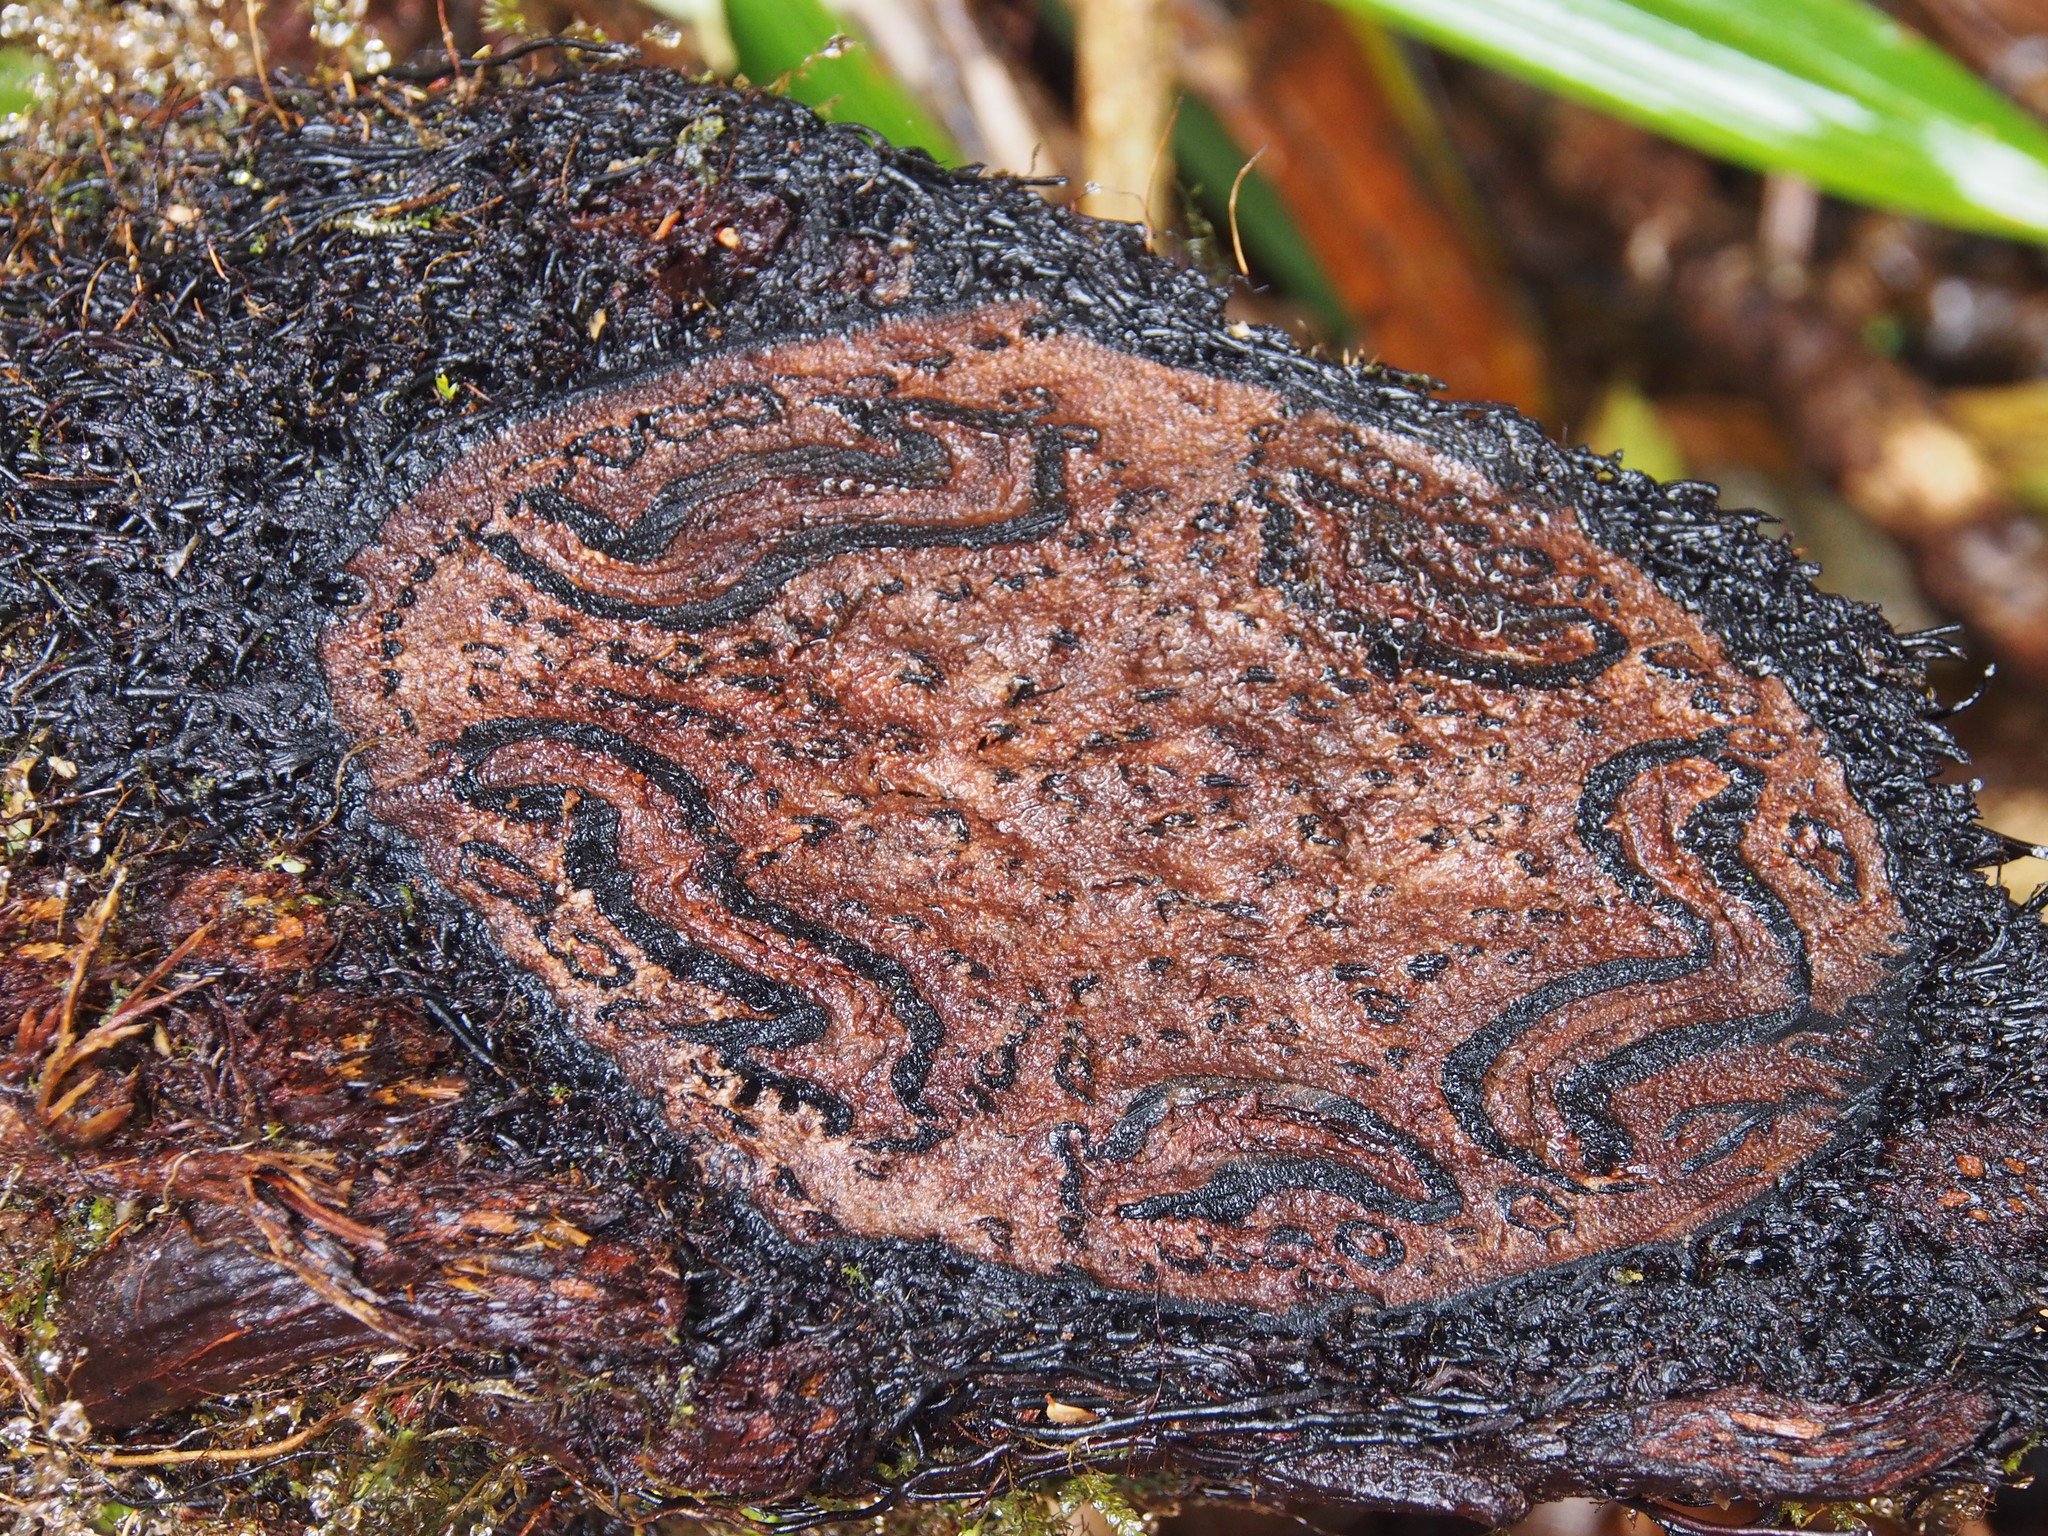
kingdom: Plantae
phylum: Tracheophyta
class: Polypodiopsida
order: Cyatheales
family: Cyatheaceae
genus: Alsophila
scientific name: Alsophila polystichoides
